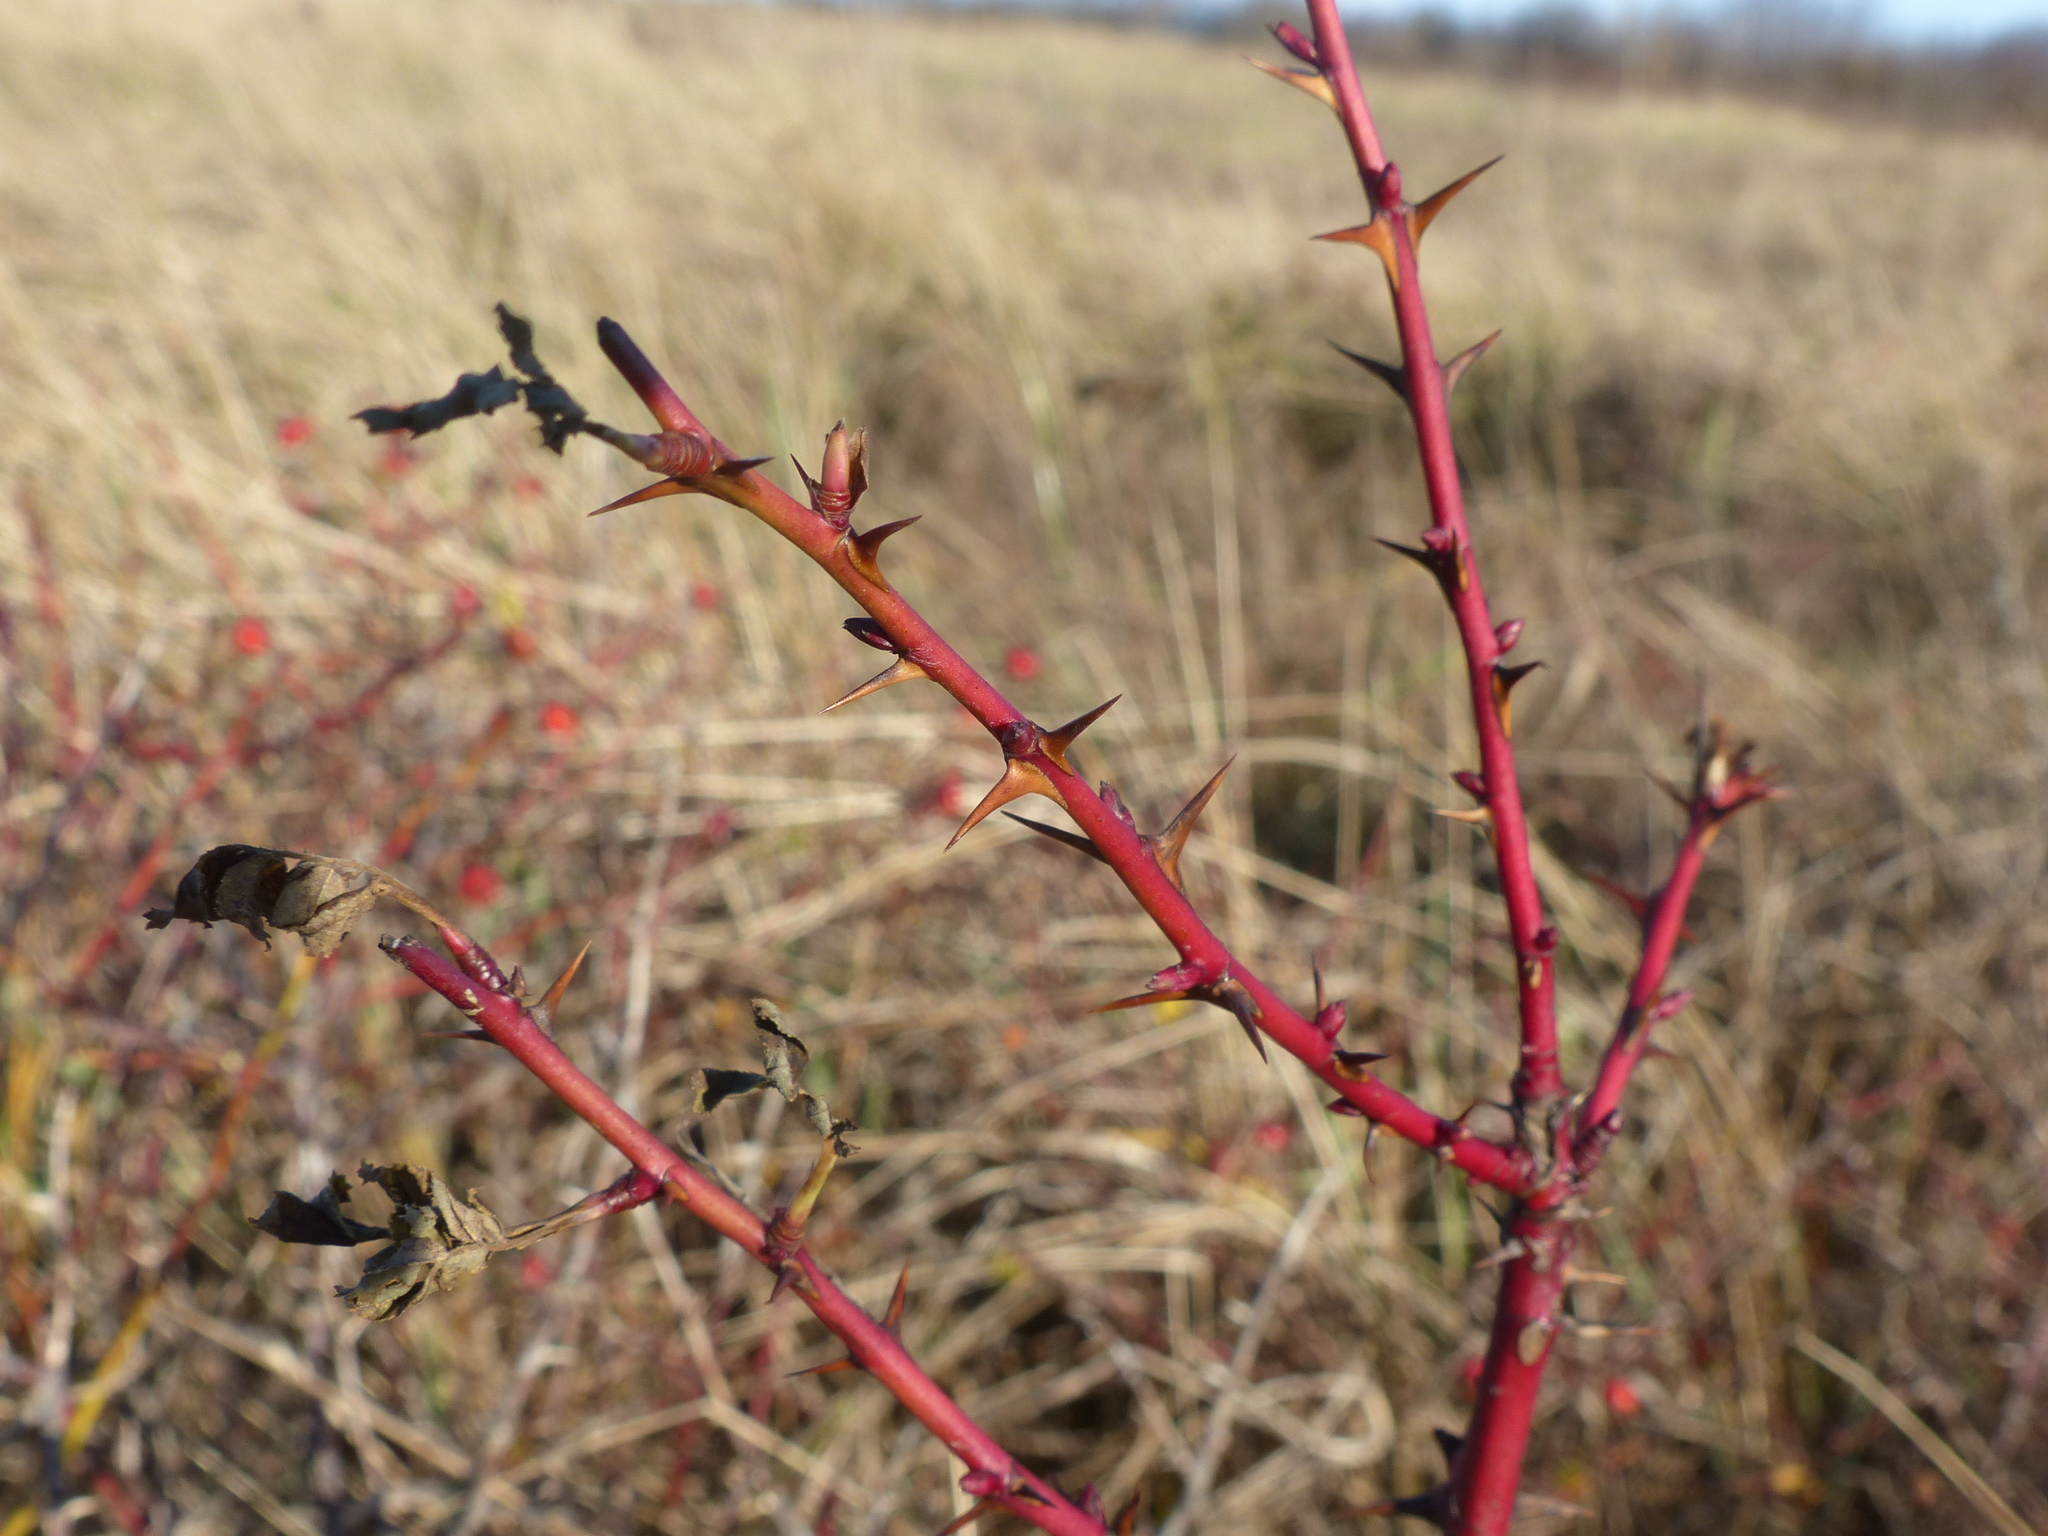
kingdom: Plantae
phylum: Tracheophyta
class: Magnoliopsida
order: Rosales
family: Rosaceae
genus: Rosa
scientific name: Rosa nutkana
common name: Nootka rose
